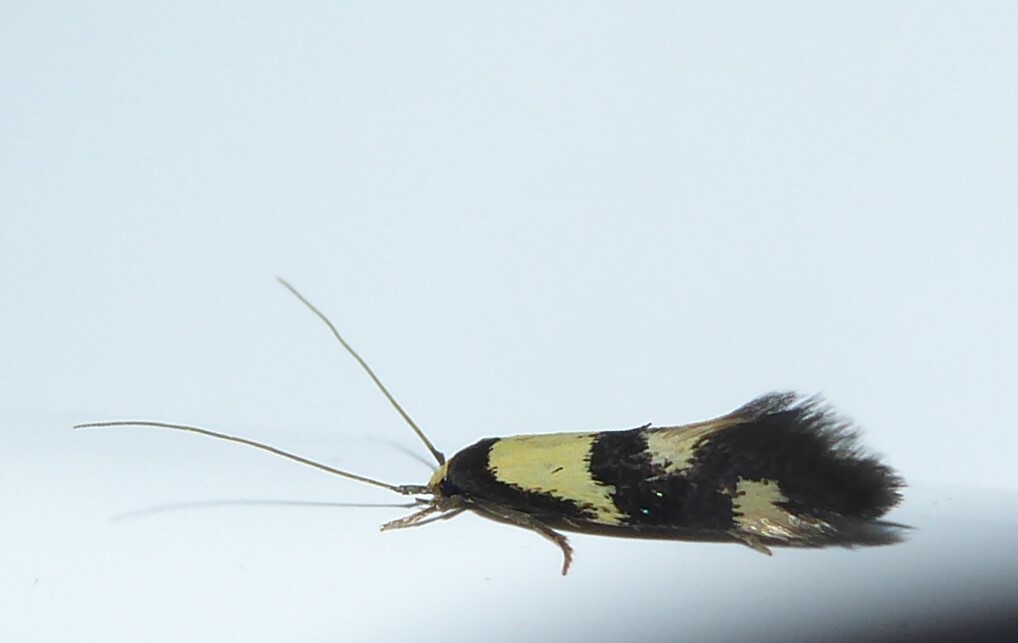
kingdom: Animalia
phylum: Arthropoda
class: Insecta
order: Lepidoptera
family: Tineidae
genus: Opogona
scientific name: Opogona comptella
